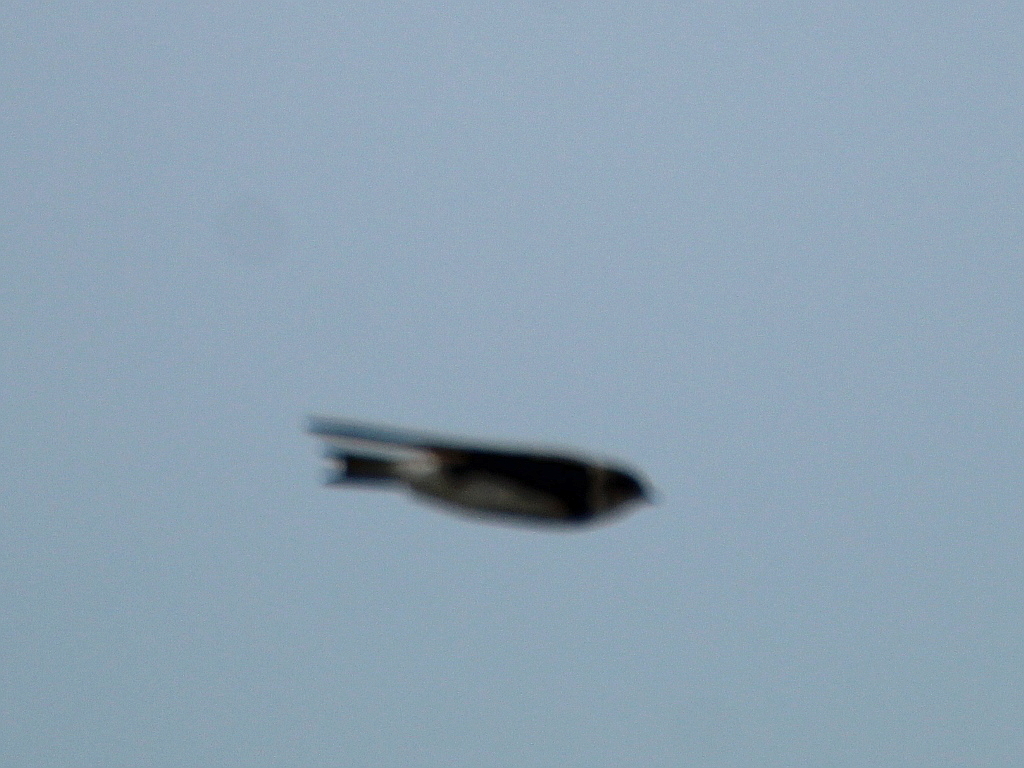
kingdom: Animalia
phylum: Chordata
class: Aves
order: Passeriformes
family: Hirundinidae
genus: Riparia
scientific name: Riparia riparia
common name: Sand martin
